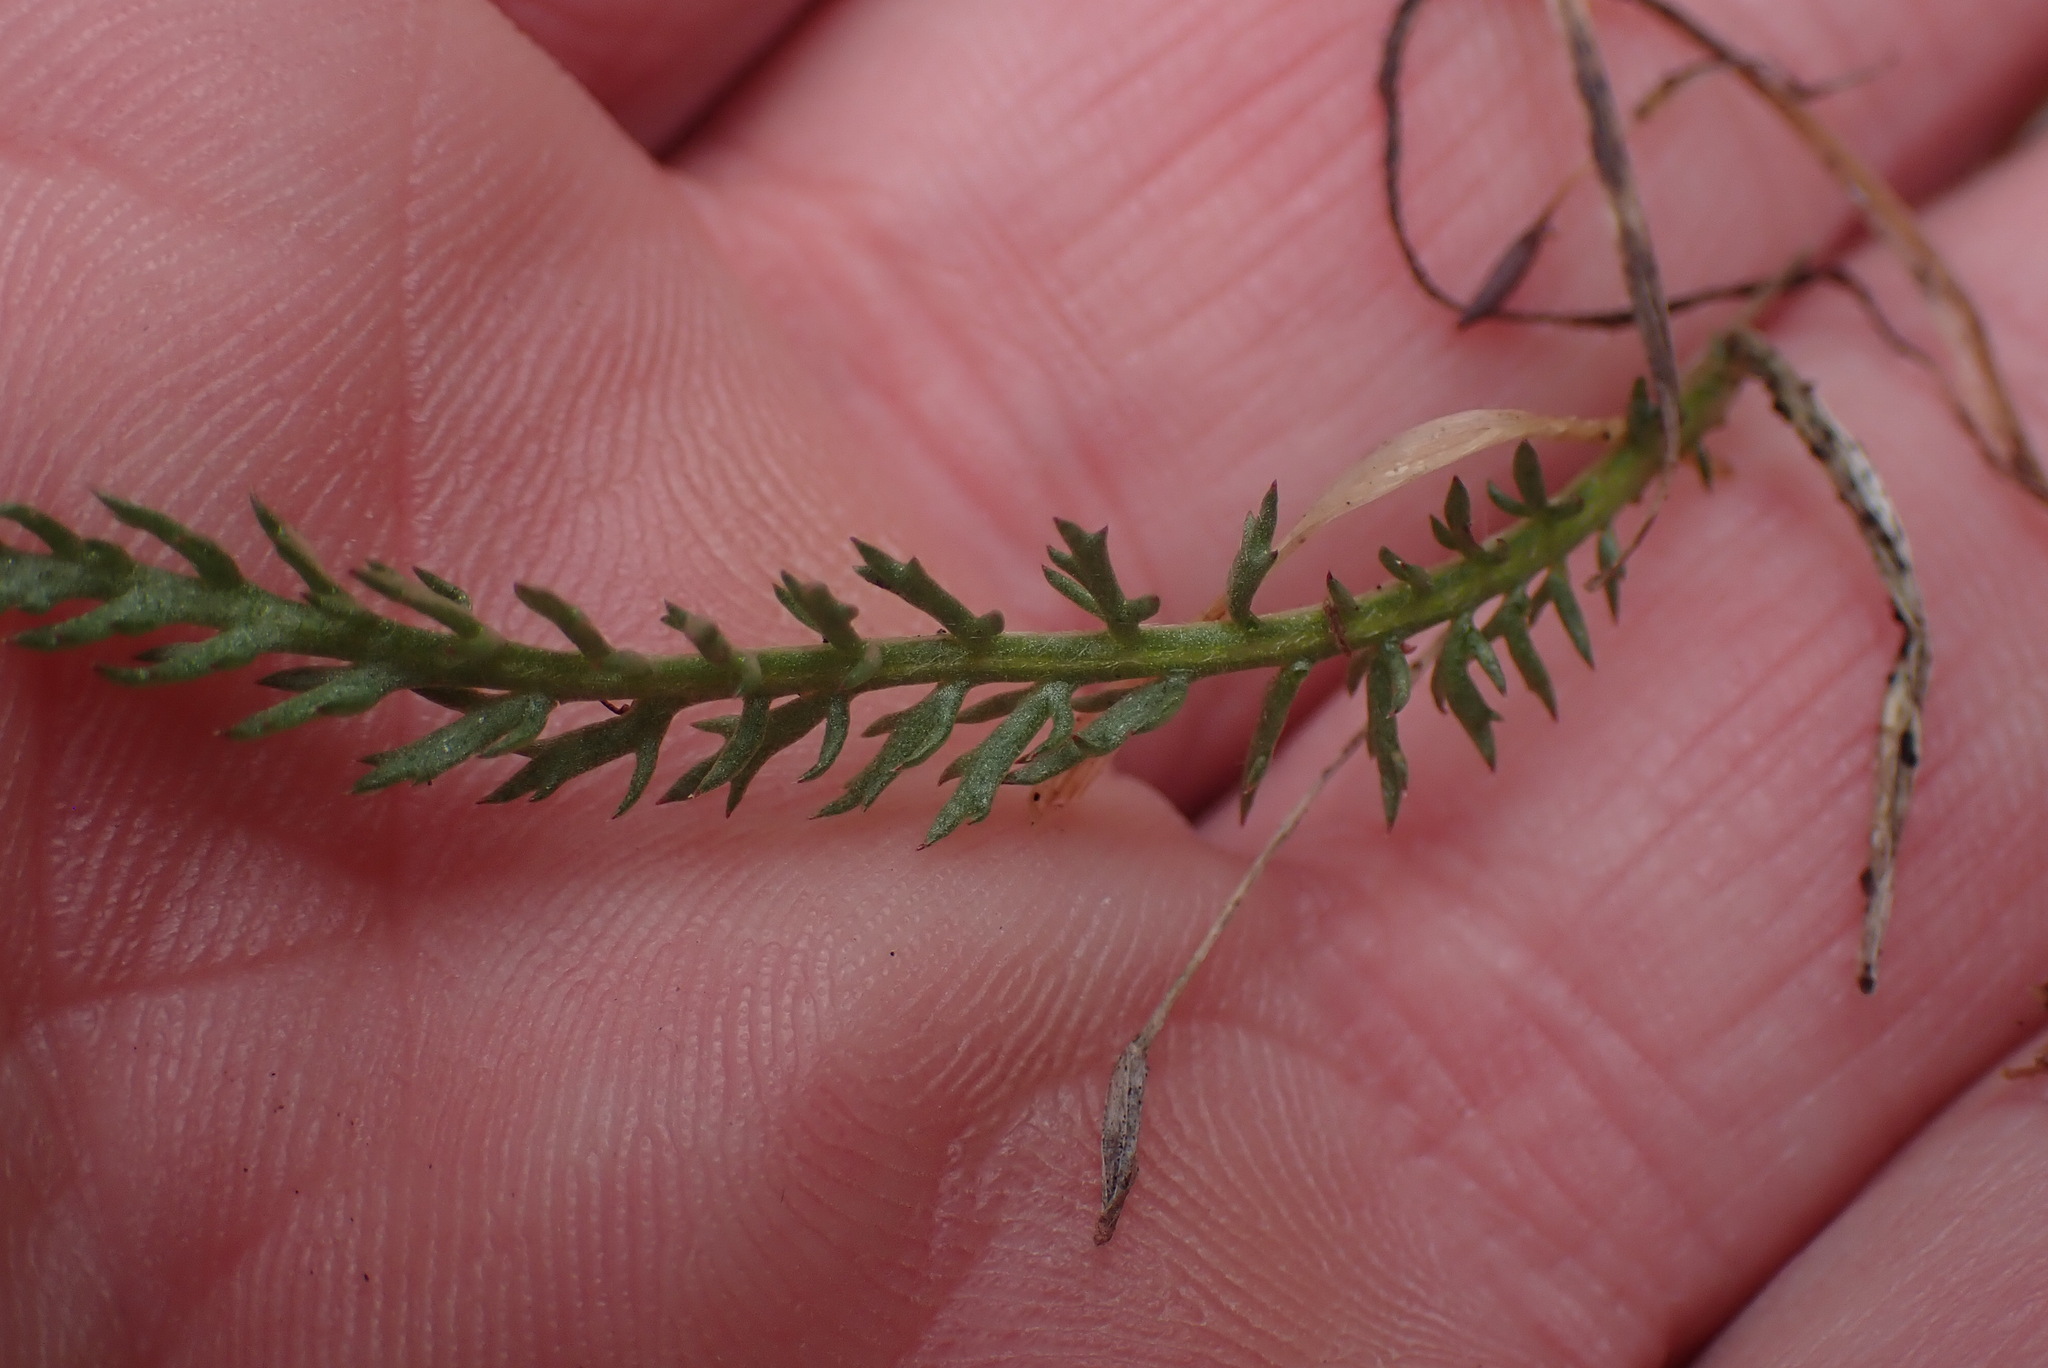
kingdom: Plantae
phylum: Tracheophyta
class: Magnoliopsida
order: Asterales
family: Asteraceae
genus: Achillea
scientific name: Achillea millefolium
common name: Yarrow
